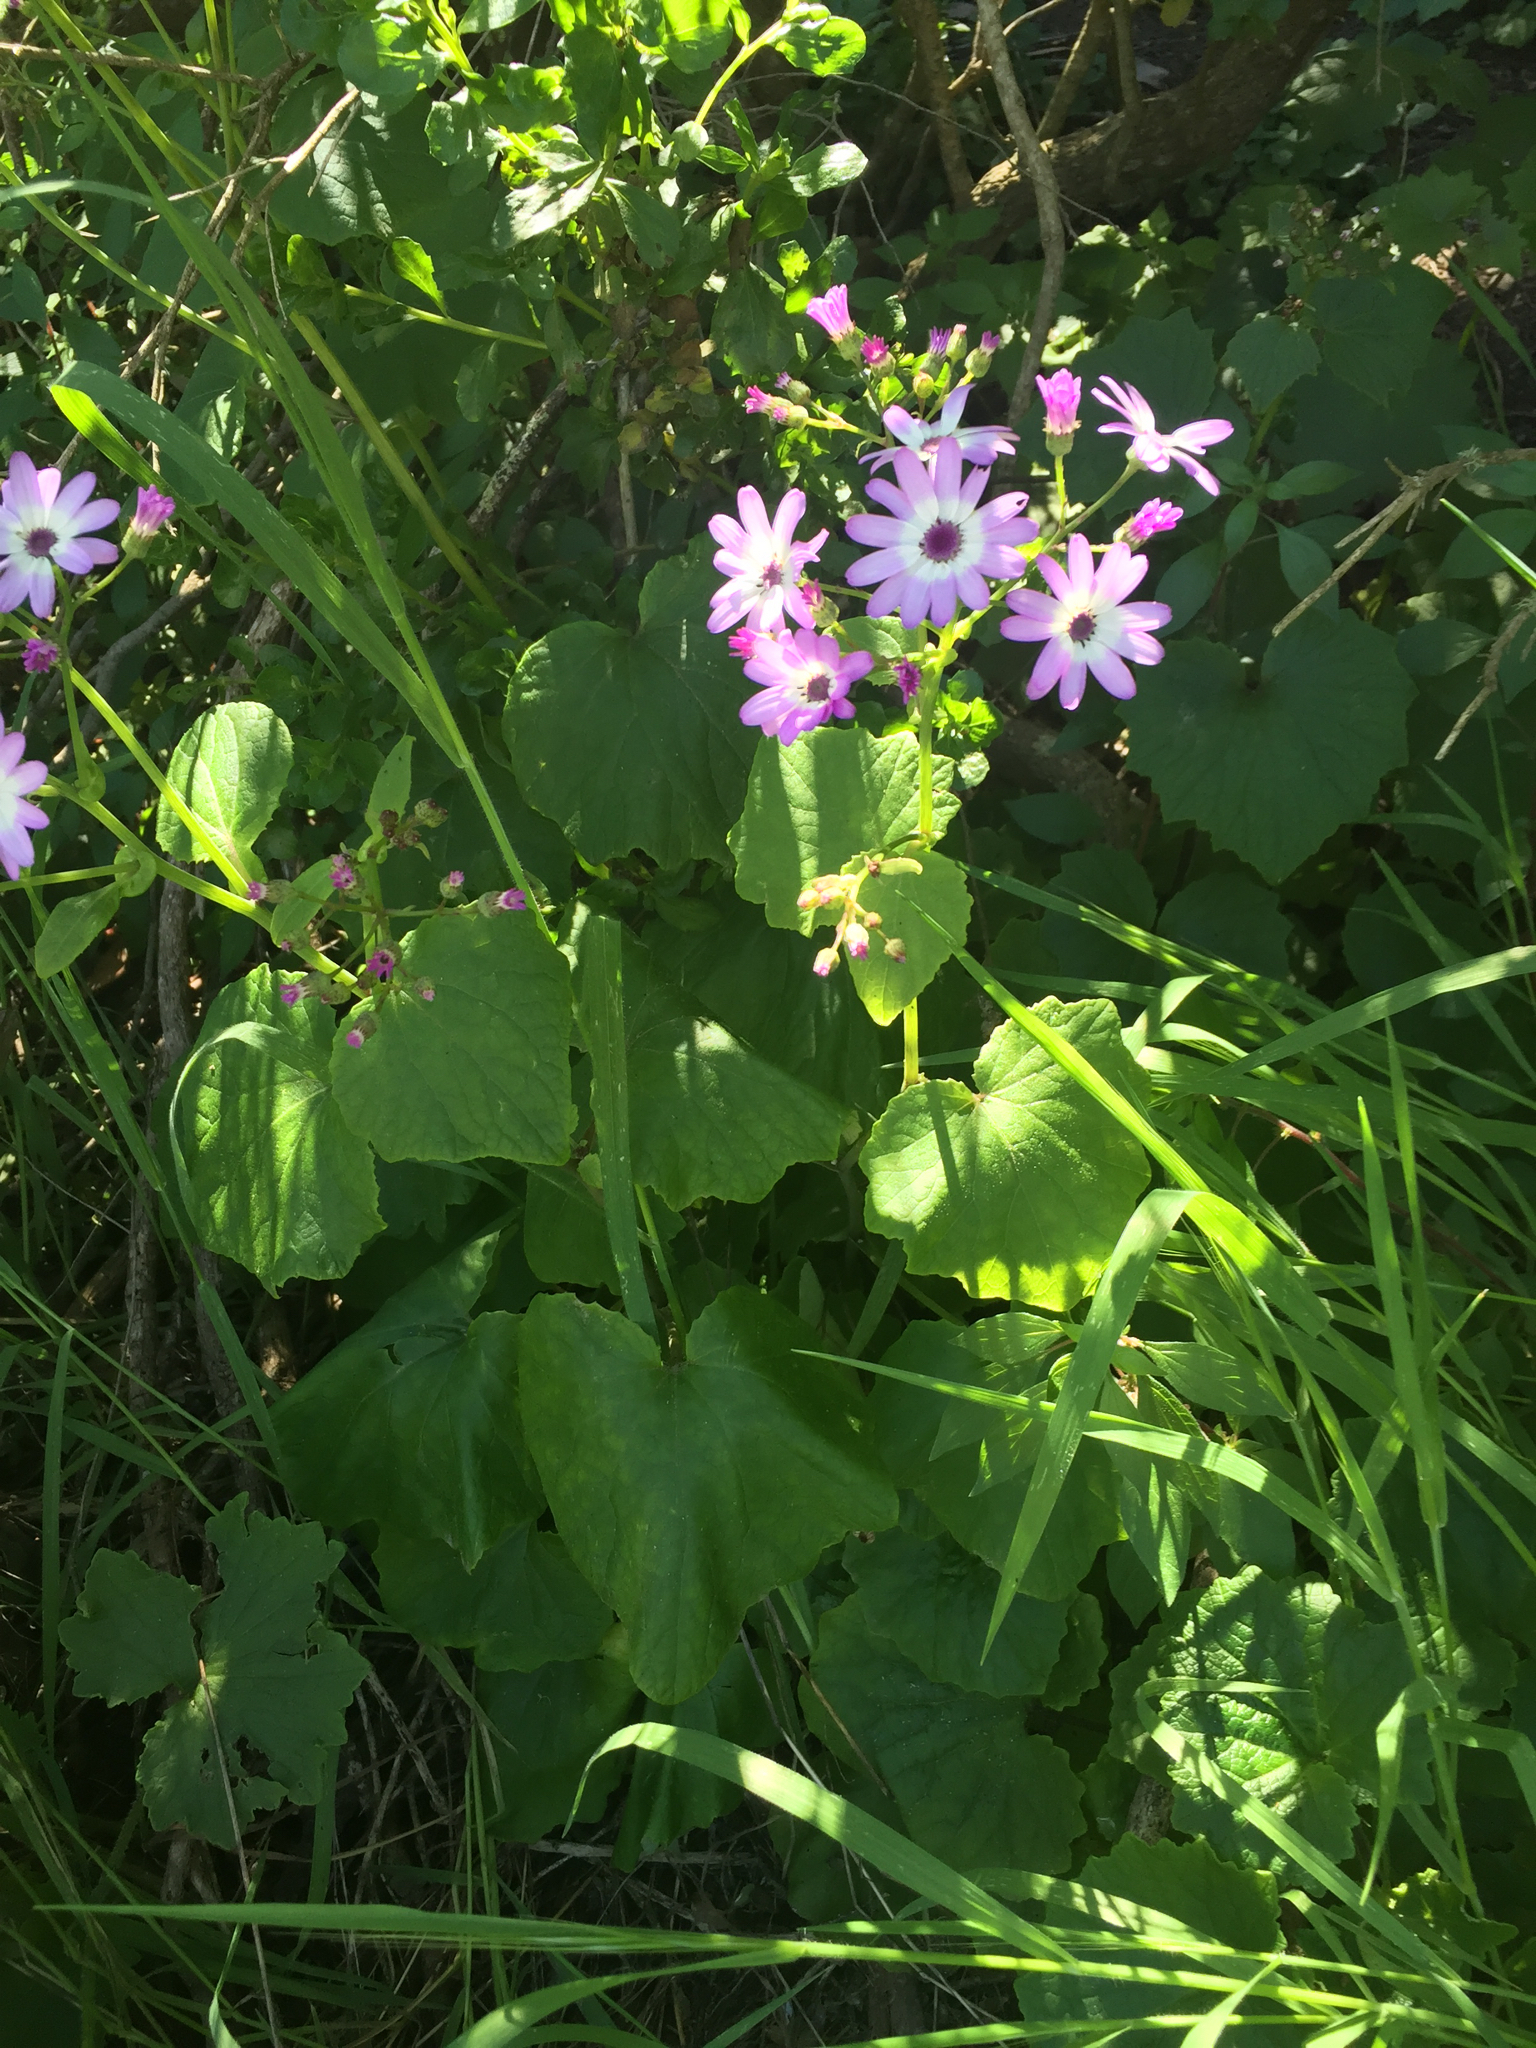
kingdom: Plantae
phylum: Tracheophyta
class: Magnoliopsida
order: Asterales
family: Asteraceae
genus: Pericallis
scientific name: Pericallis hybrida
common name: Cineraria
